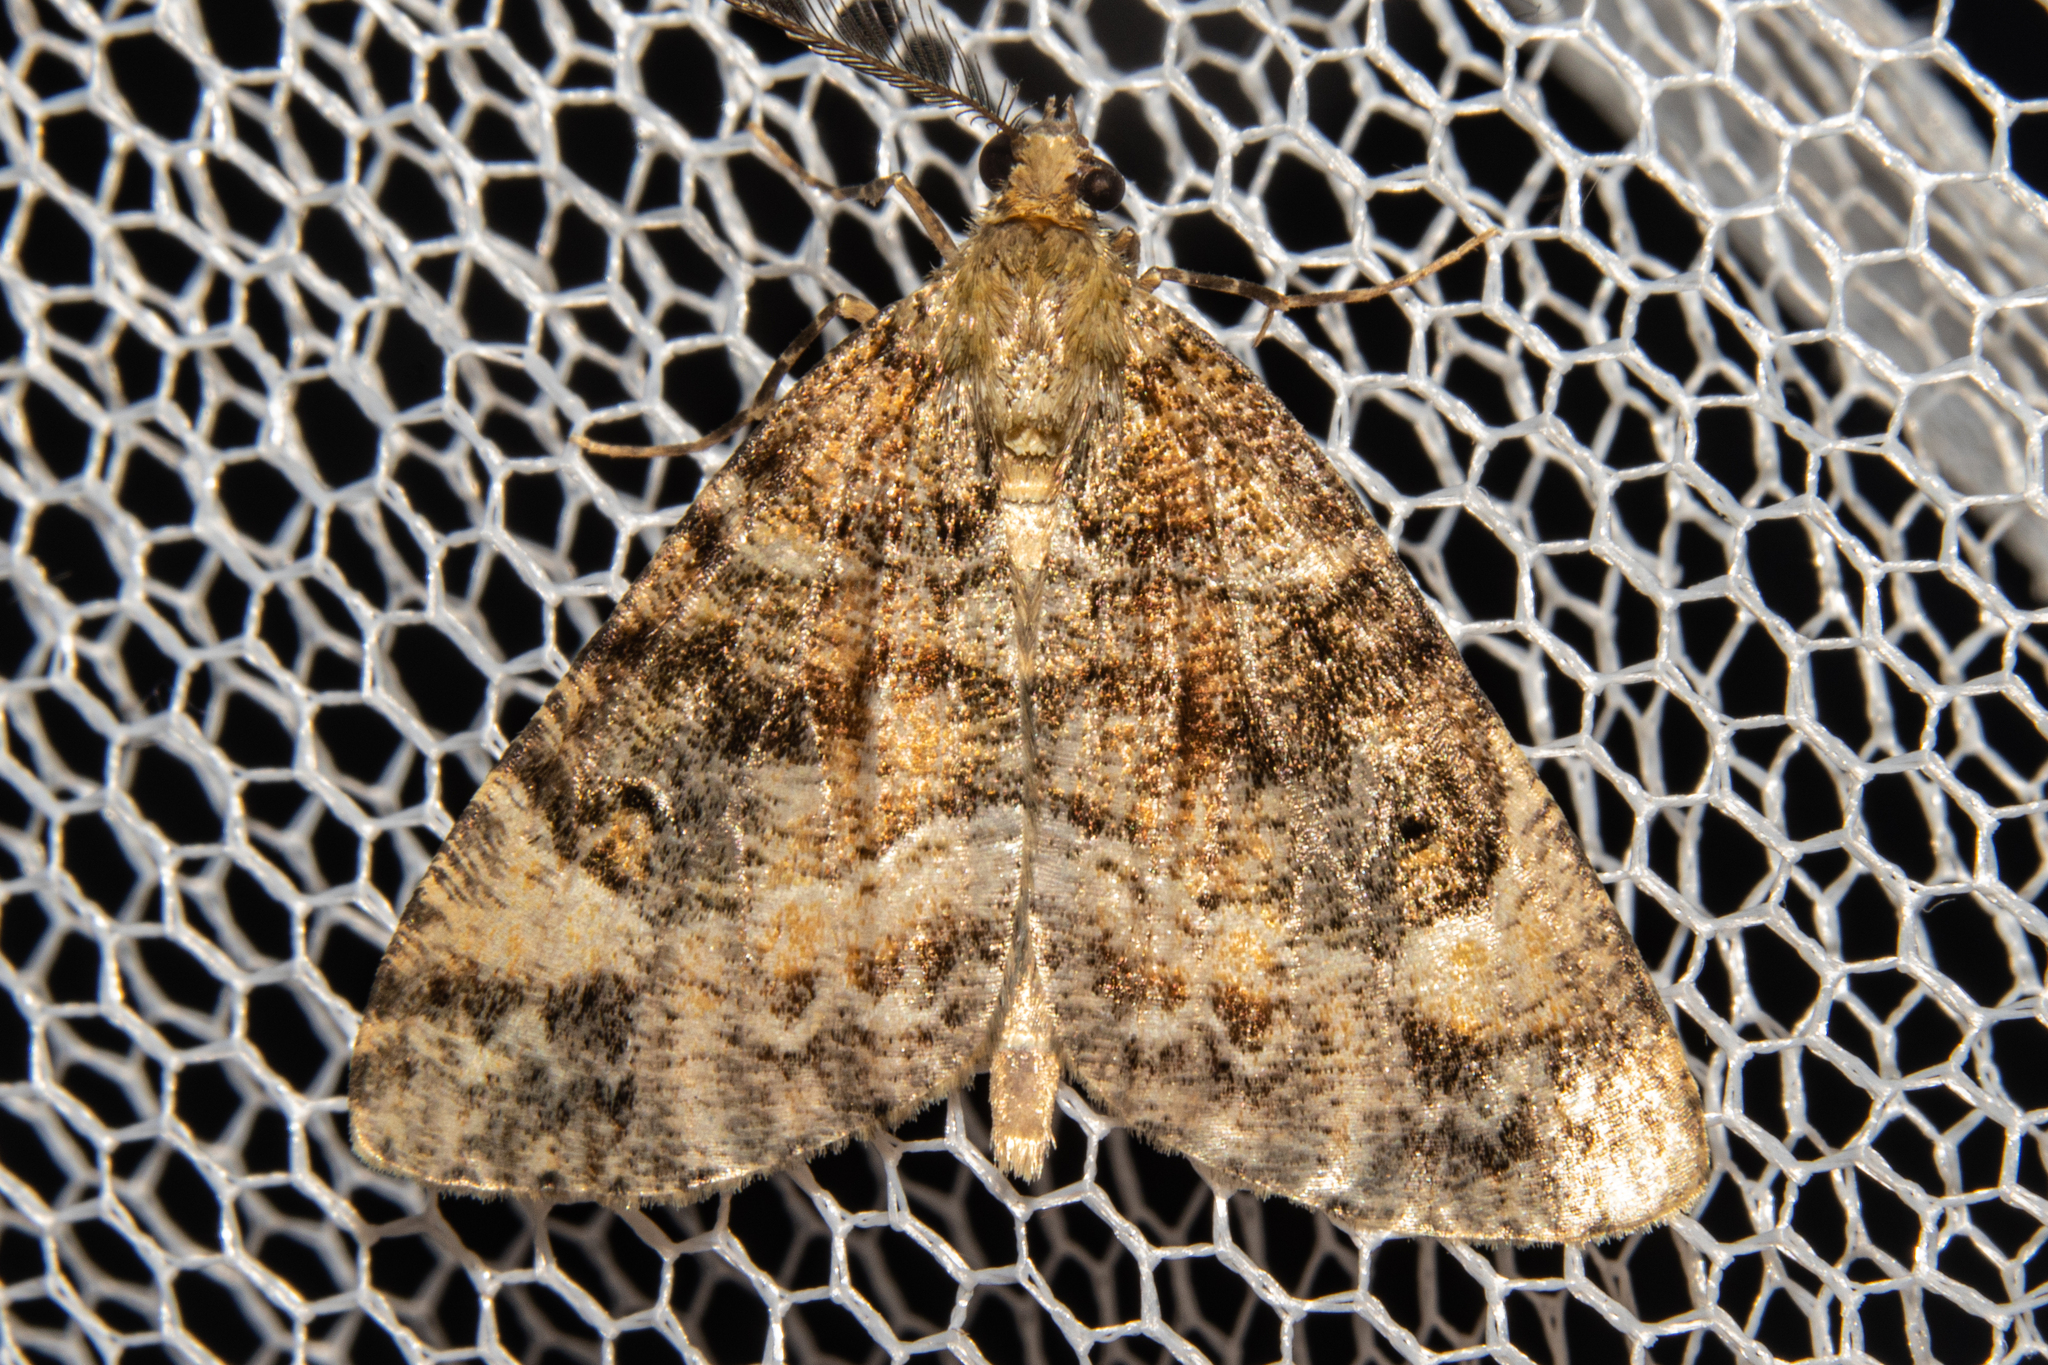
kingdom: Animalia
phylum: Arthropoda
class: Insecta
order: Lepidoptera
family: Geometridae
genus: Pseudocoremia
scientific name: Pseudocoremia productata
